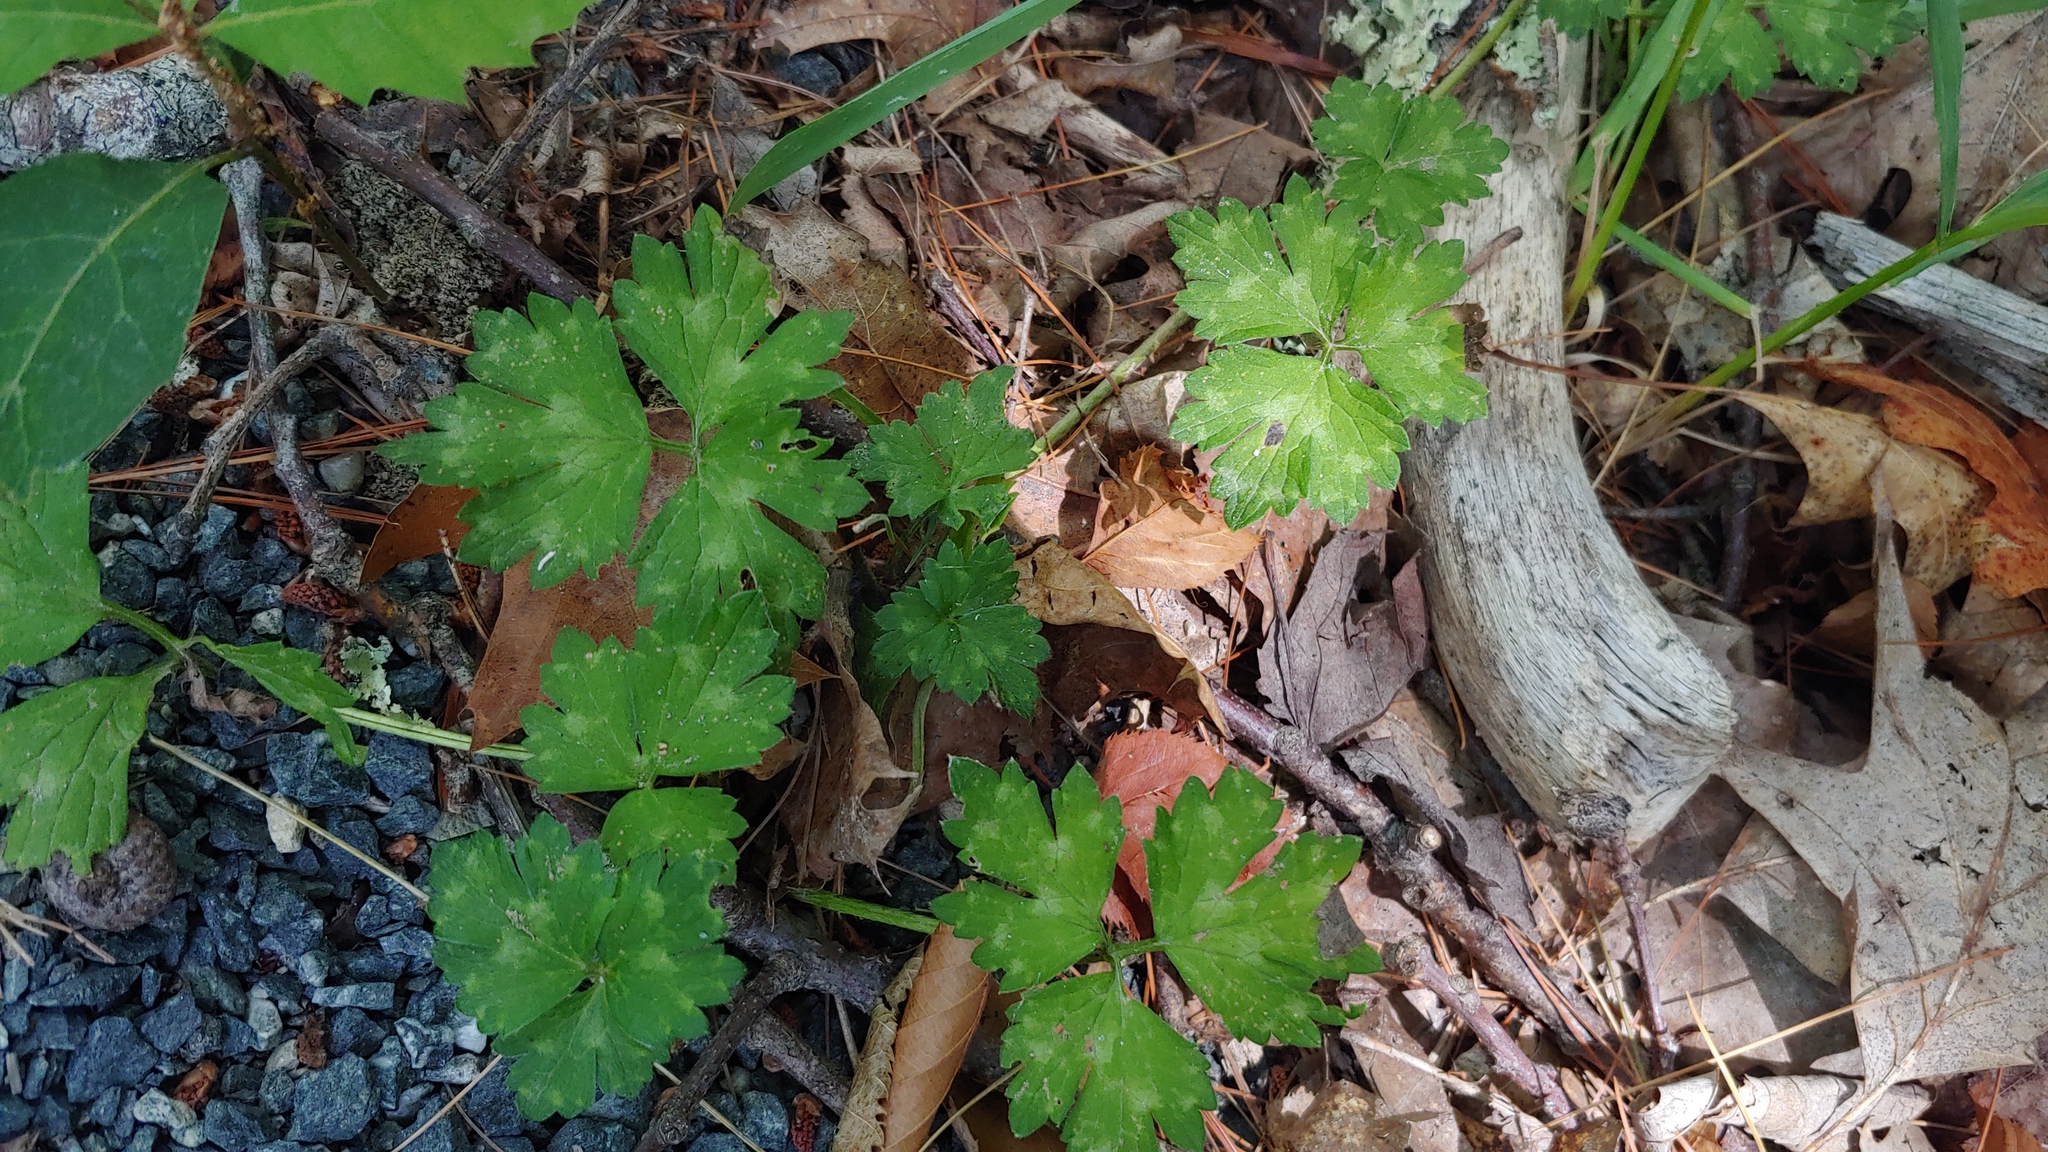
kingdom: Plantae
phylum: Tracheophyta
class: Magnoliopsida
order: Ranunculales
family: Ranunculaceae
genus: Ranunculus
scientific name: Ranunculus repens
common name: Creeping buttercup
